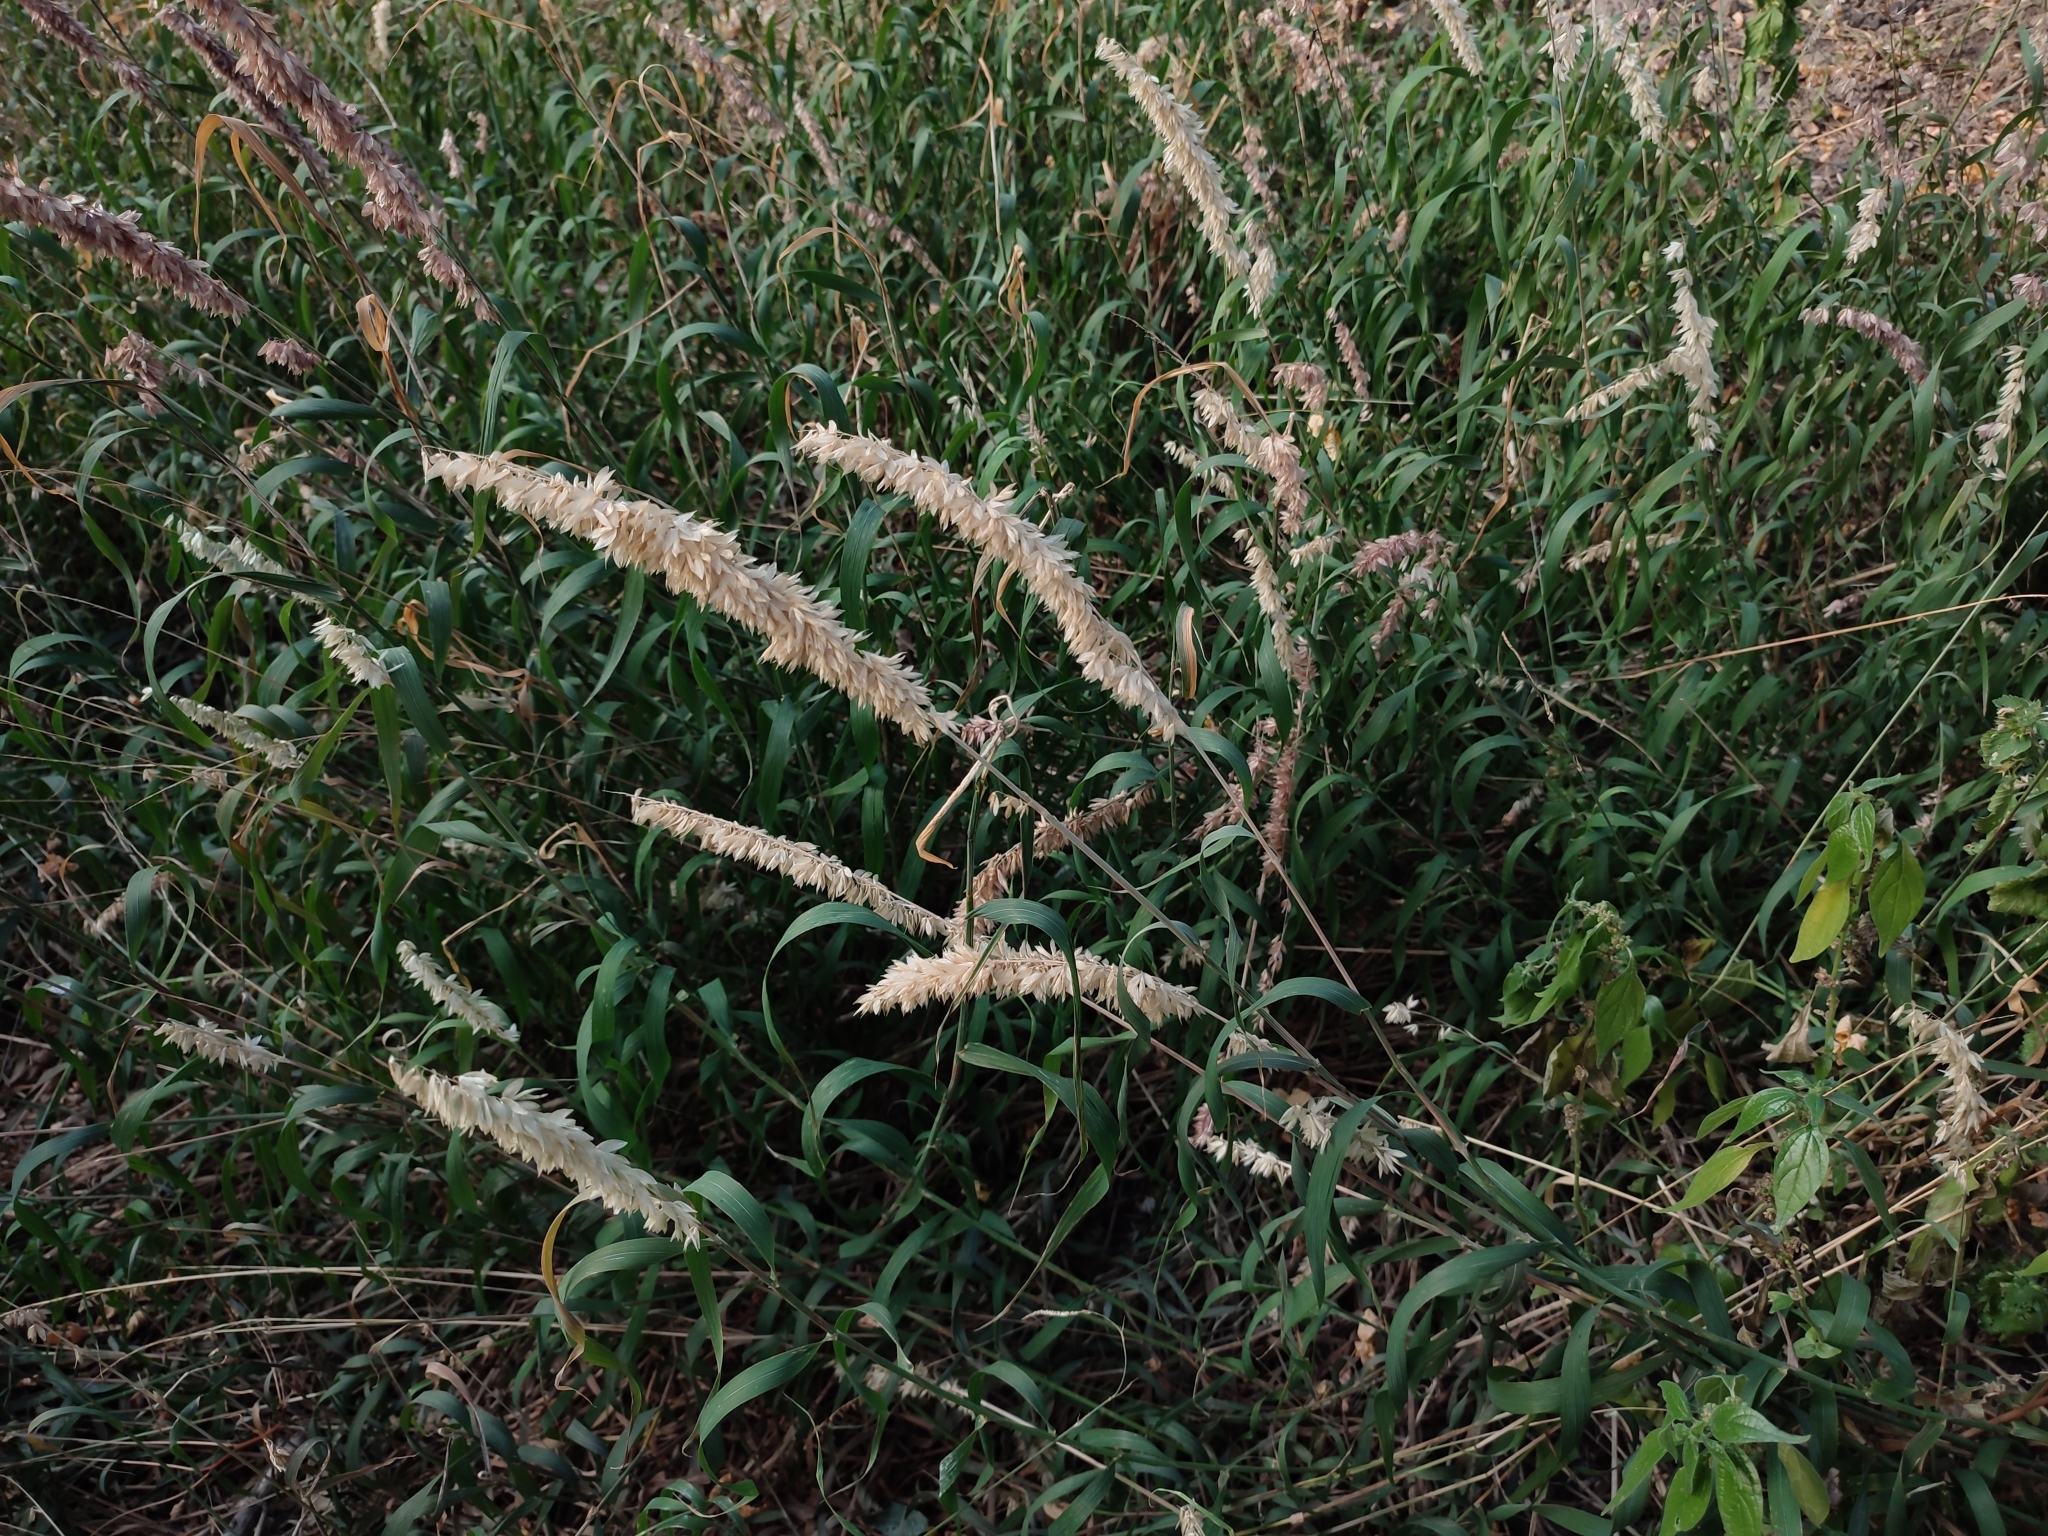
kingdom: Plantae
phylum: Tracheophyta
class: Liliopsida
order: Poales
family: Poaceae
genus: Melica
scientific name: Melica altissima
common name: Siberian melicgrass
